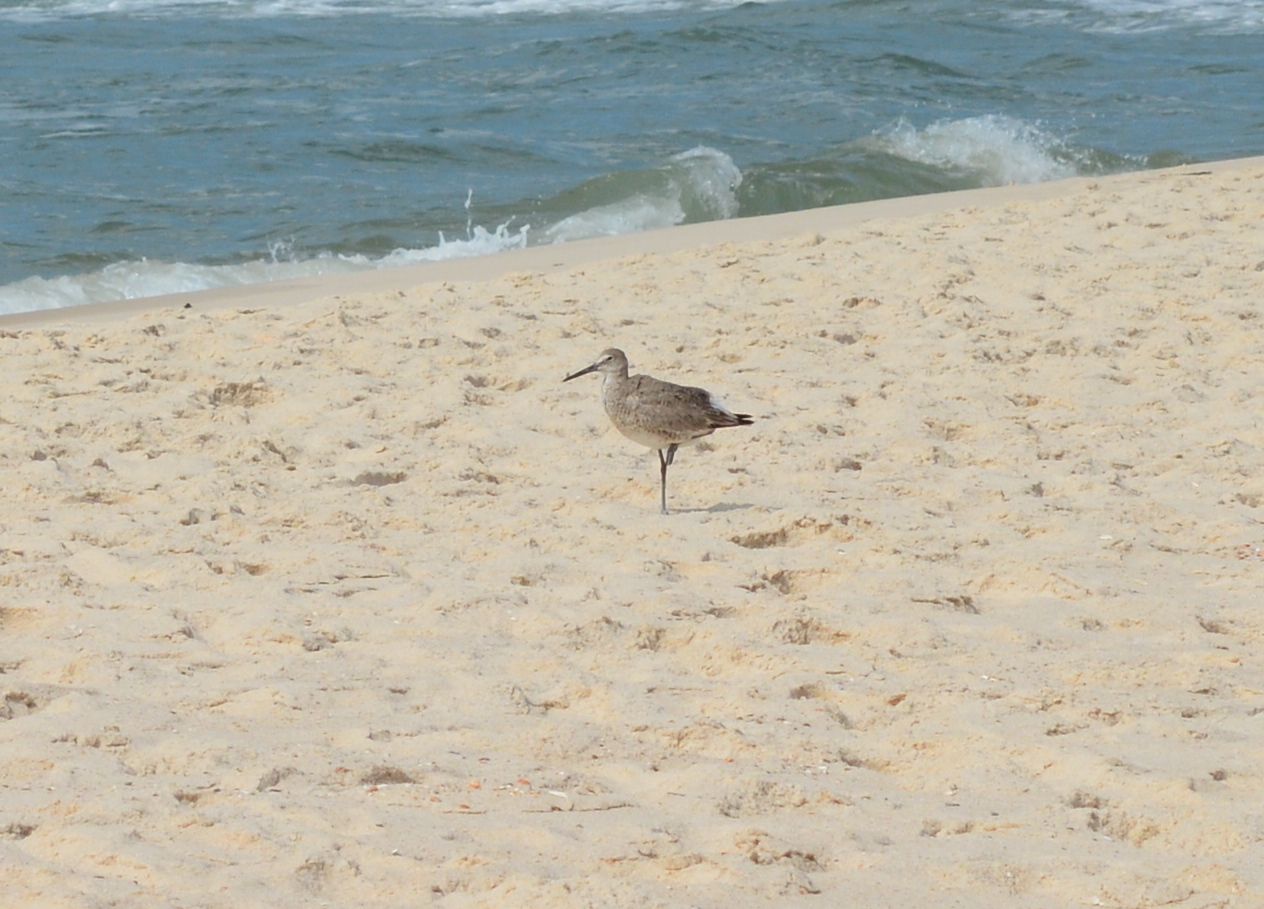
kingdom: Animalia
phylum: Chordata
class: Aves
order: Charadriiformes
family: Scolopacidae
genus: Tringa
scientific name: Tringa semipalmata
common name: Willet
